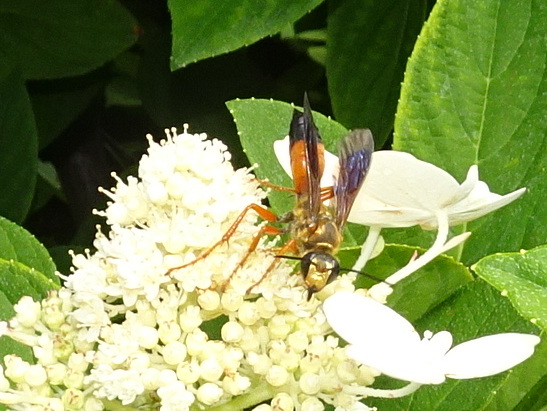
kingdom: Animalia
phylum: Arthropoda
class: Insecta
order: Hymenoptera
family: Sphecidae
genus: Sphex
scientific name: Sphex ichneumoneus
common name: Great golden digger wasp
